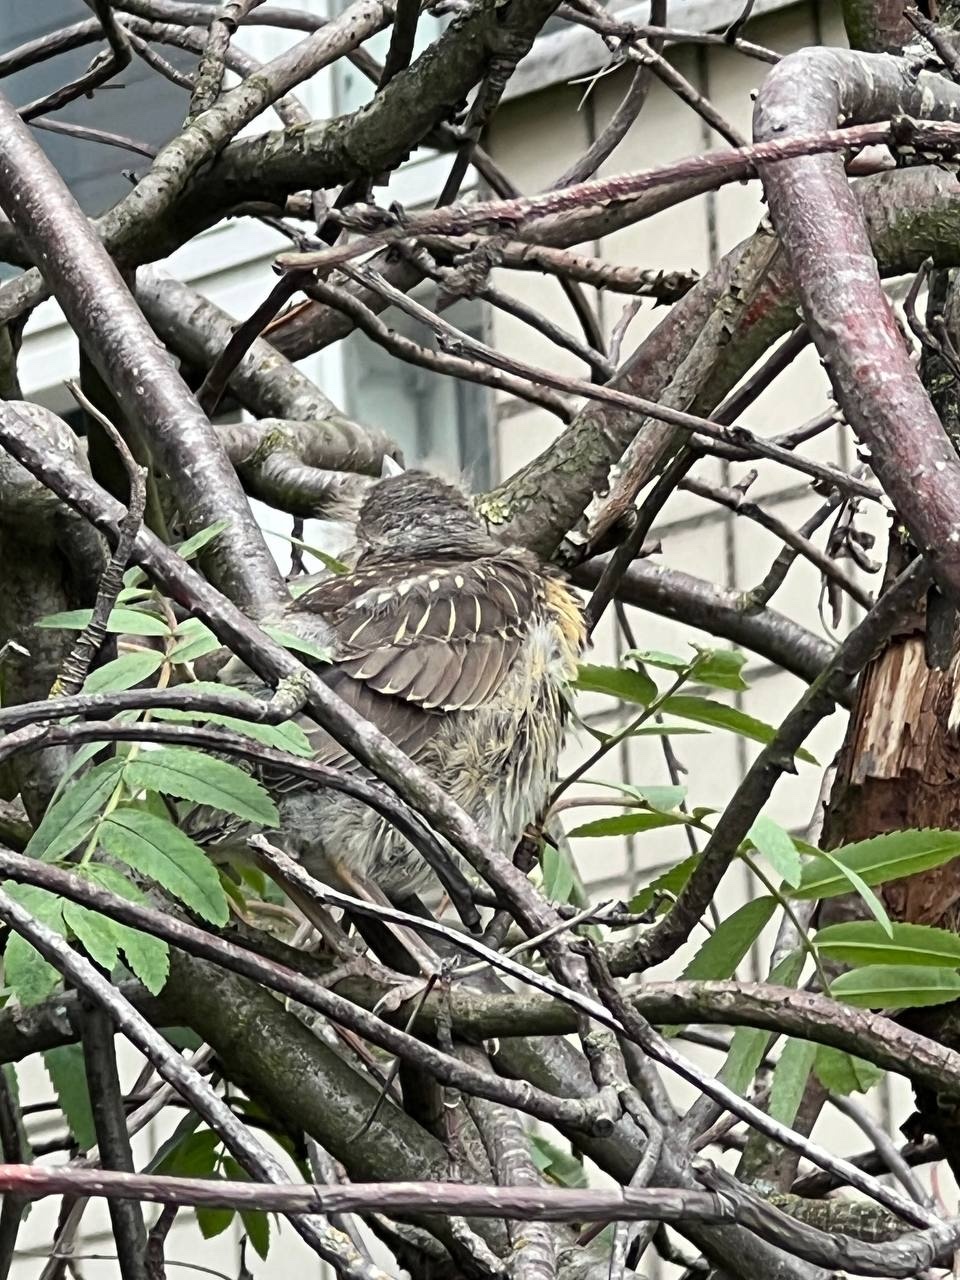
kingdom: Animalia
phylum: Chordata
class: Aves
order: Passeriformes
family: Turdidae
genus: Turdus
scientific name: Turdus pilaris
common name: Fieldfare
